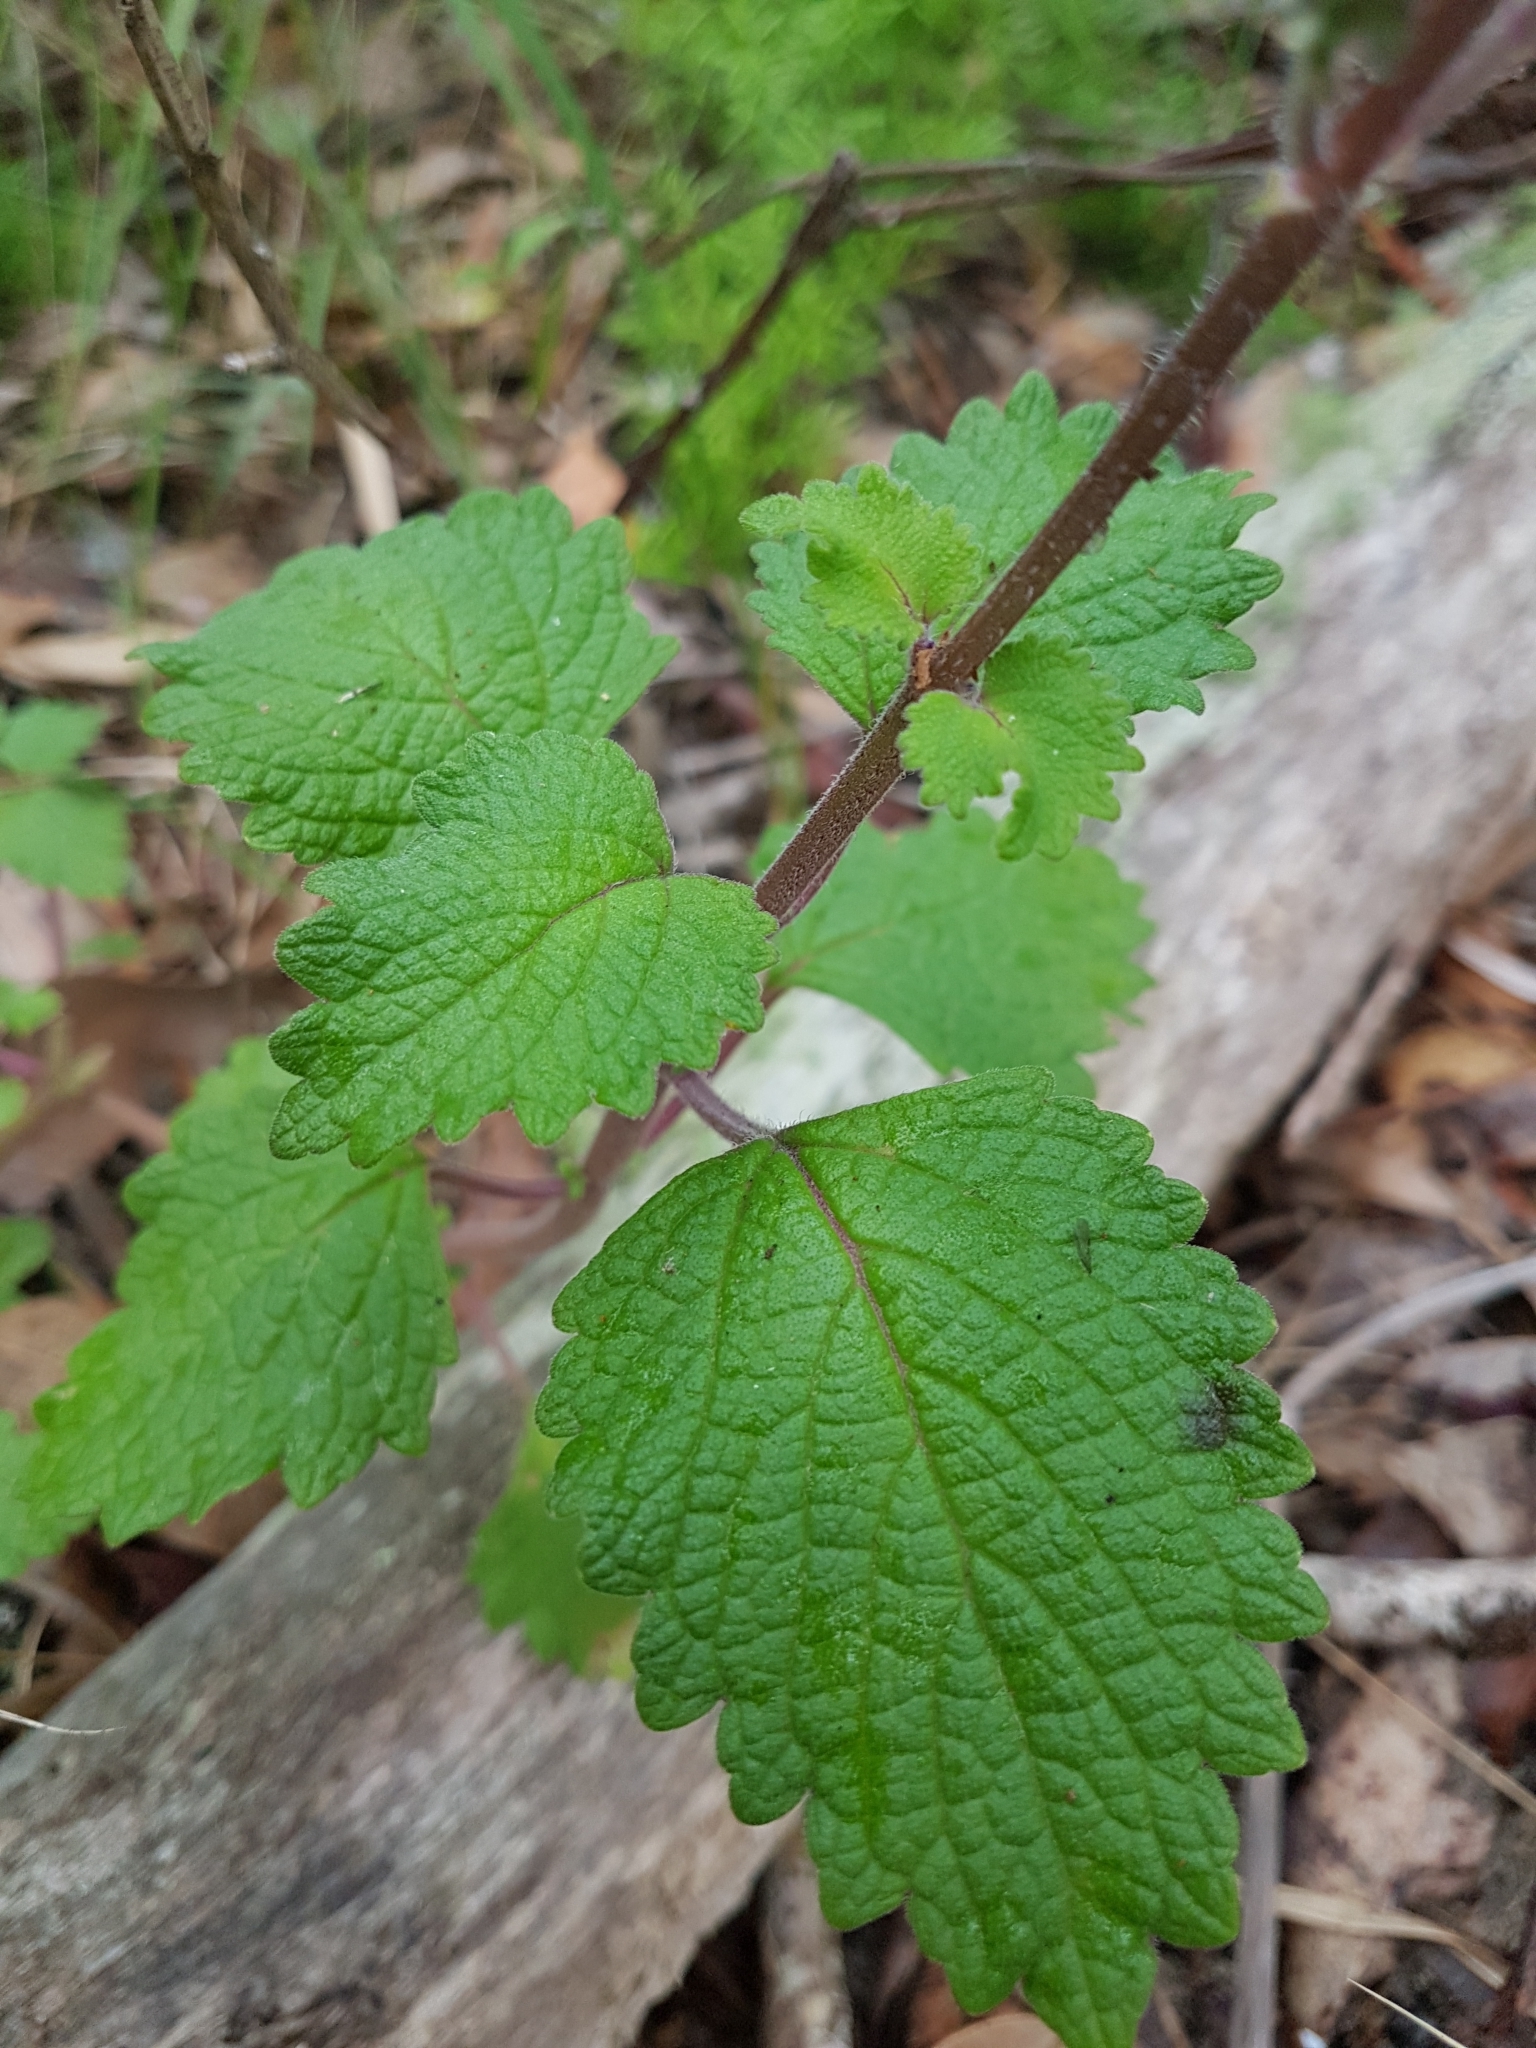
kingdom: Plantae
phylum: Tracheophyta
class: Magnoliopsida
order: Lamiales
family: Lamiaceae
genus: Coleus
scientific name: Coleus australis
